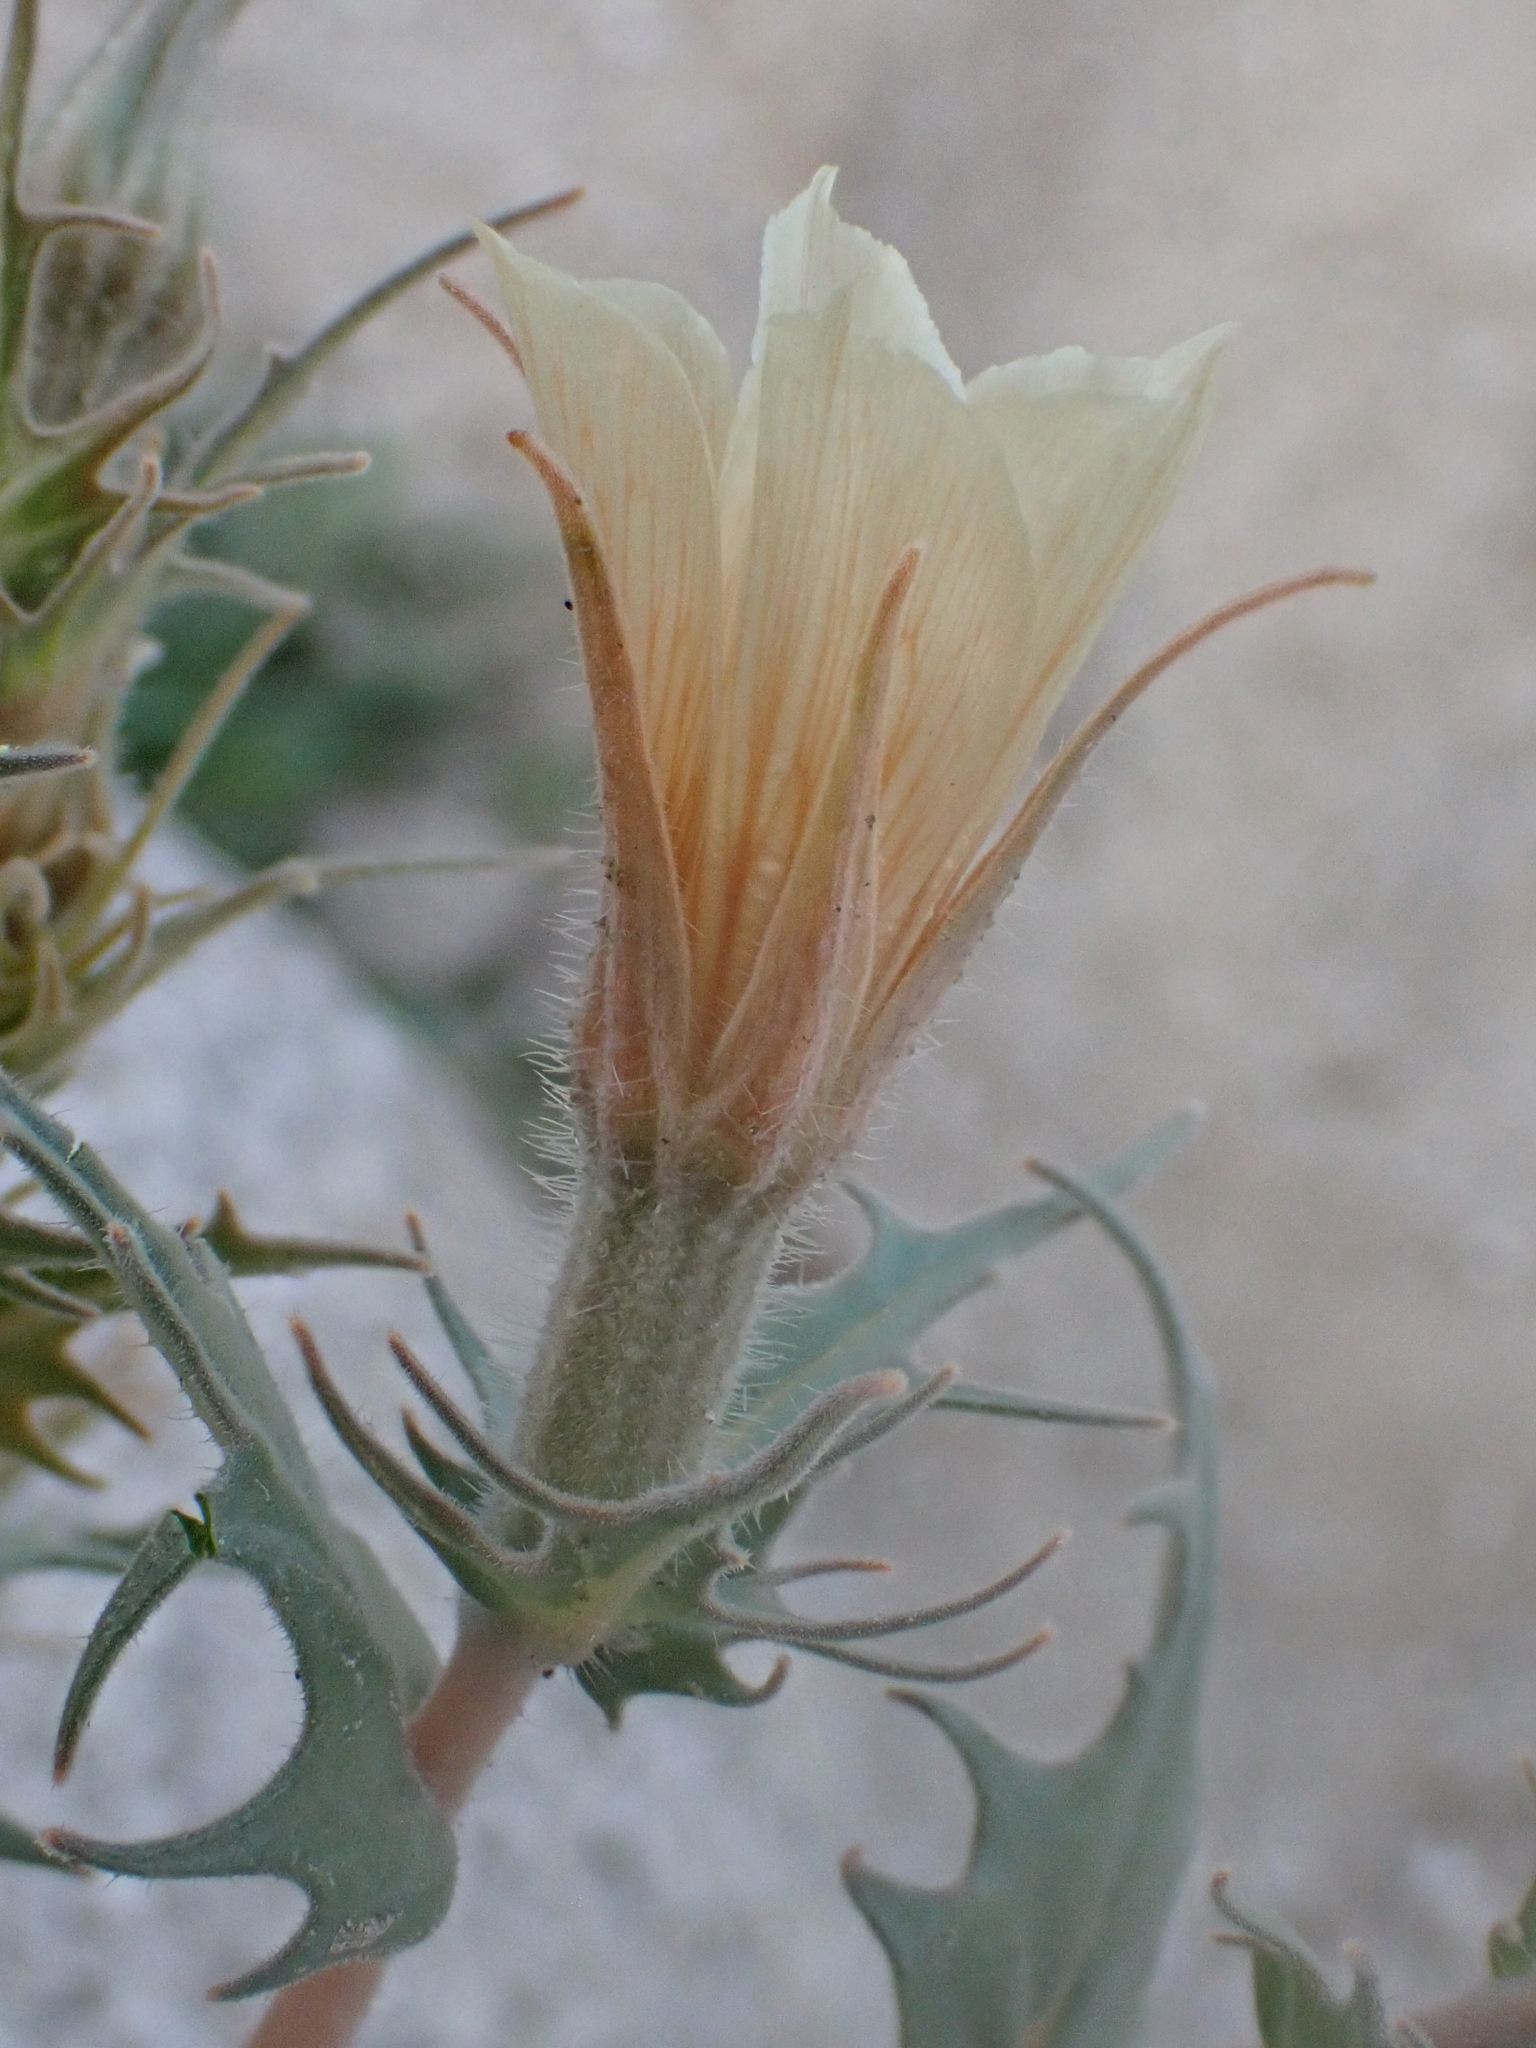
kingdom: Plantae
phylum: Tracheophyta
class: Magnoliopsida
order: Cornales
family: Loasaceae
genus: Mentzelia
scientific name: Mentzelia hirsutissima
